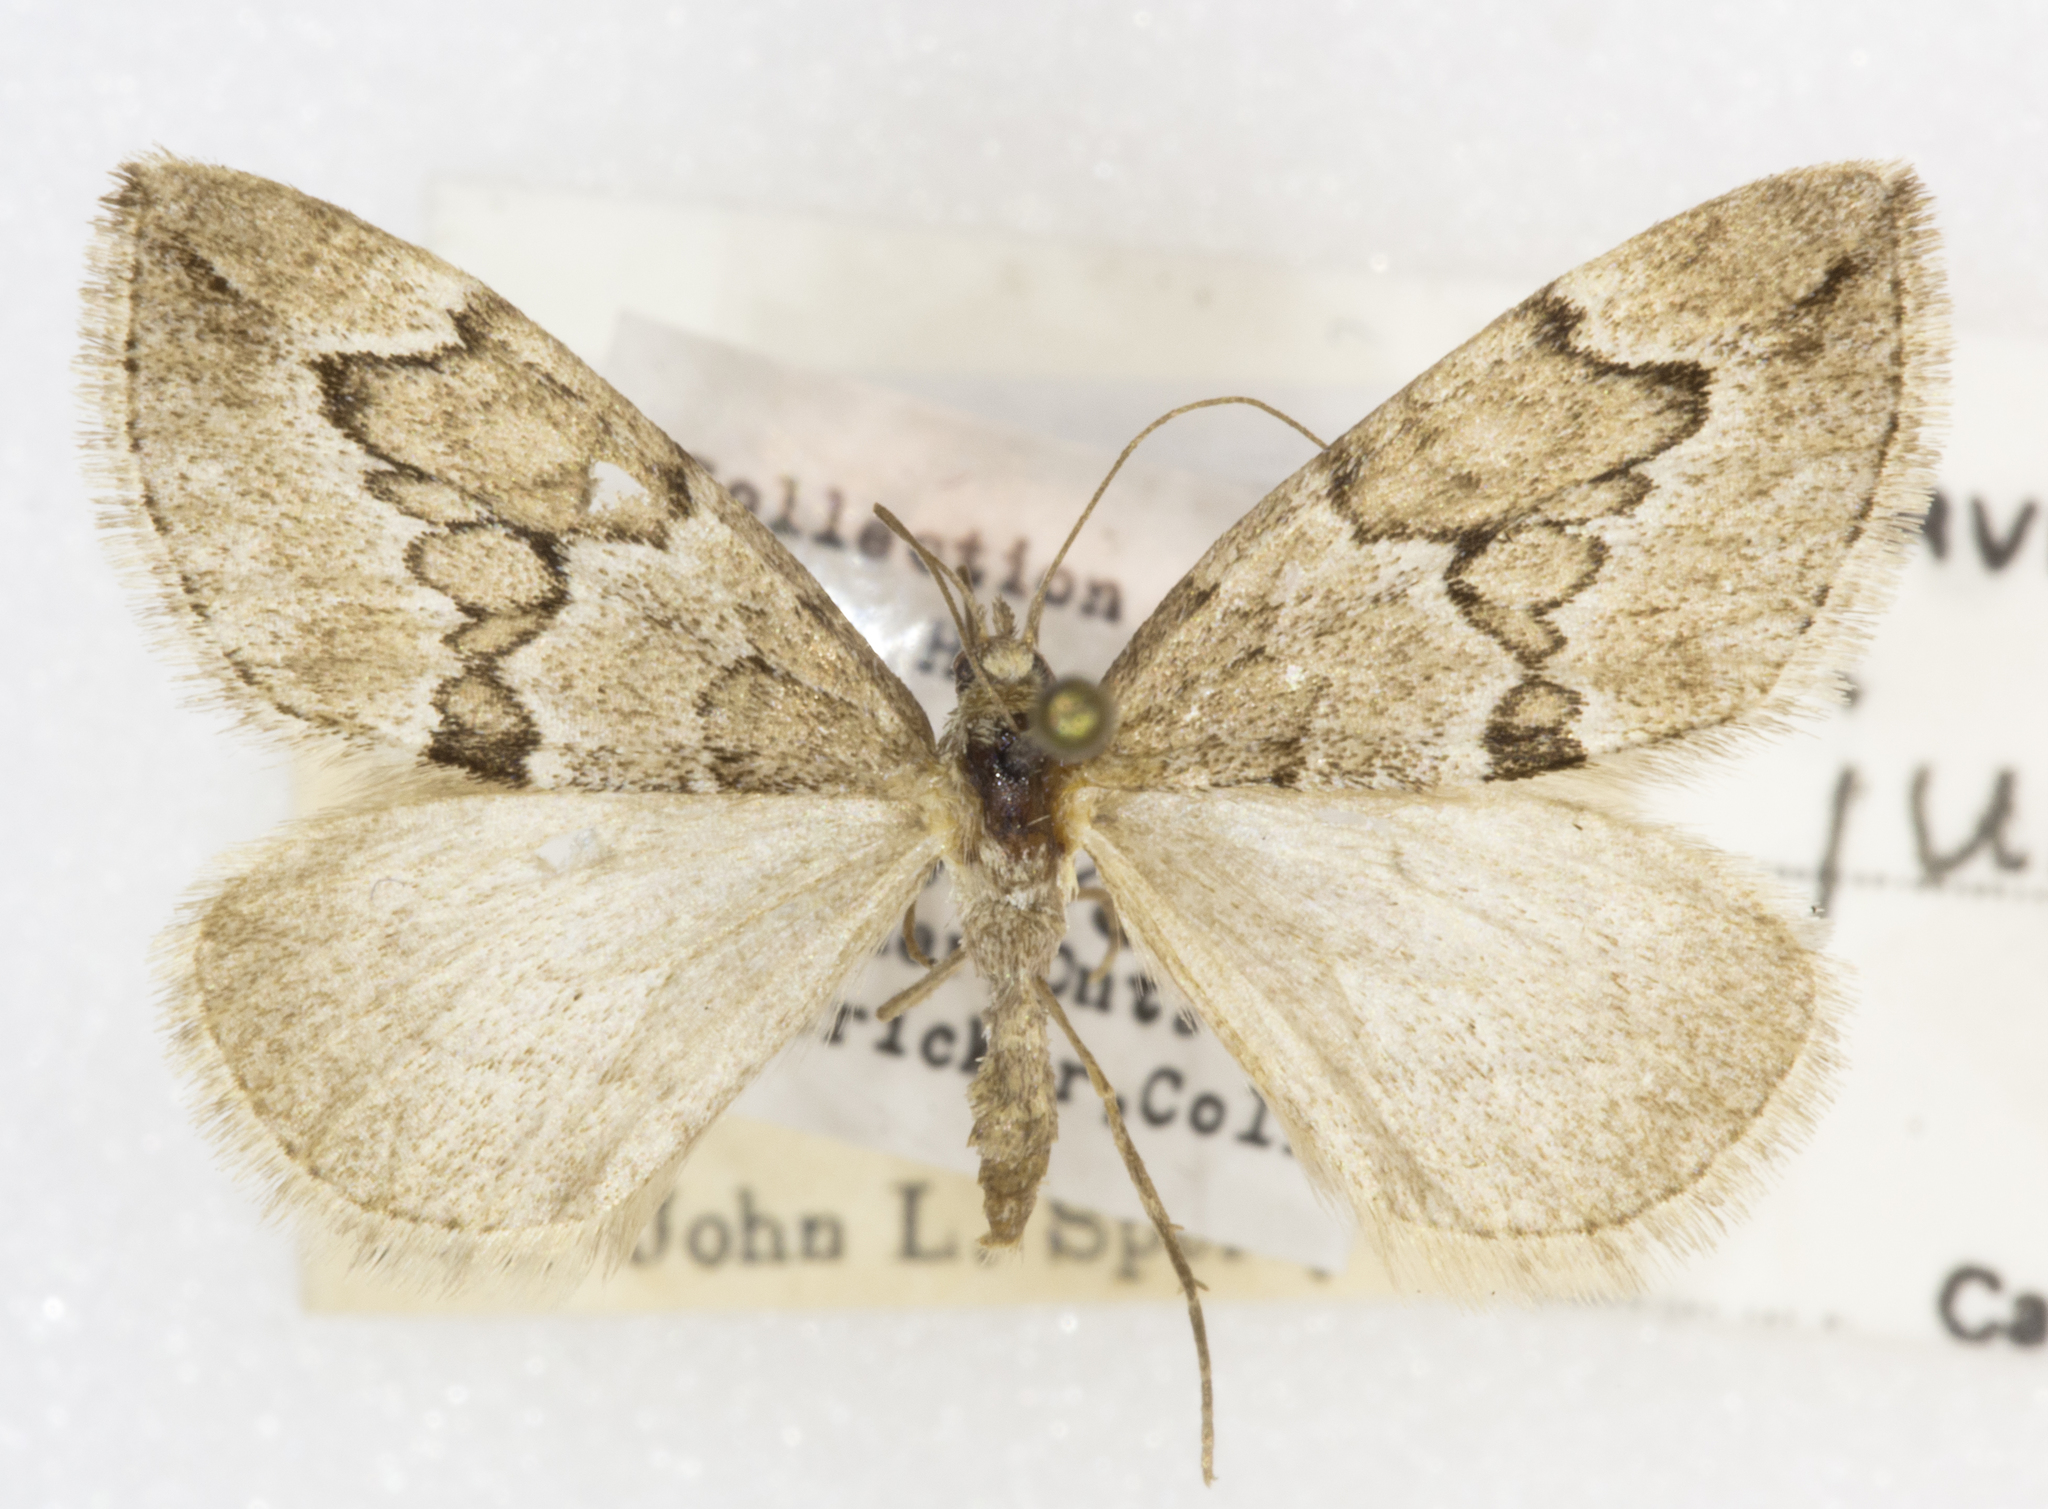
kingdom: Animalia
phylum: Arthropoda
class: Insecta
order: Lepidoptera
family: Geometridae
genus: Thera
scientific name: Thera juniperata
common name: Juniper carpet
